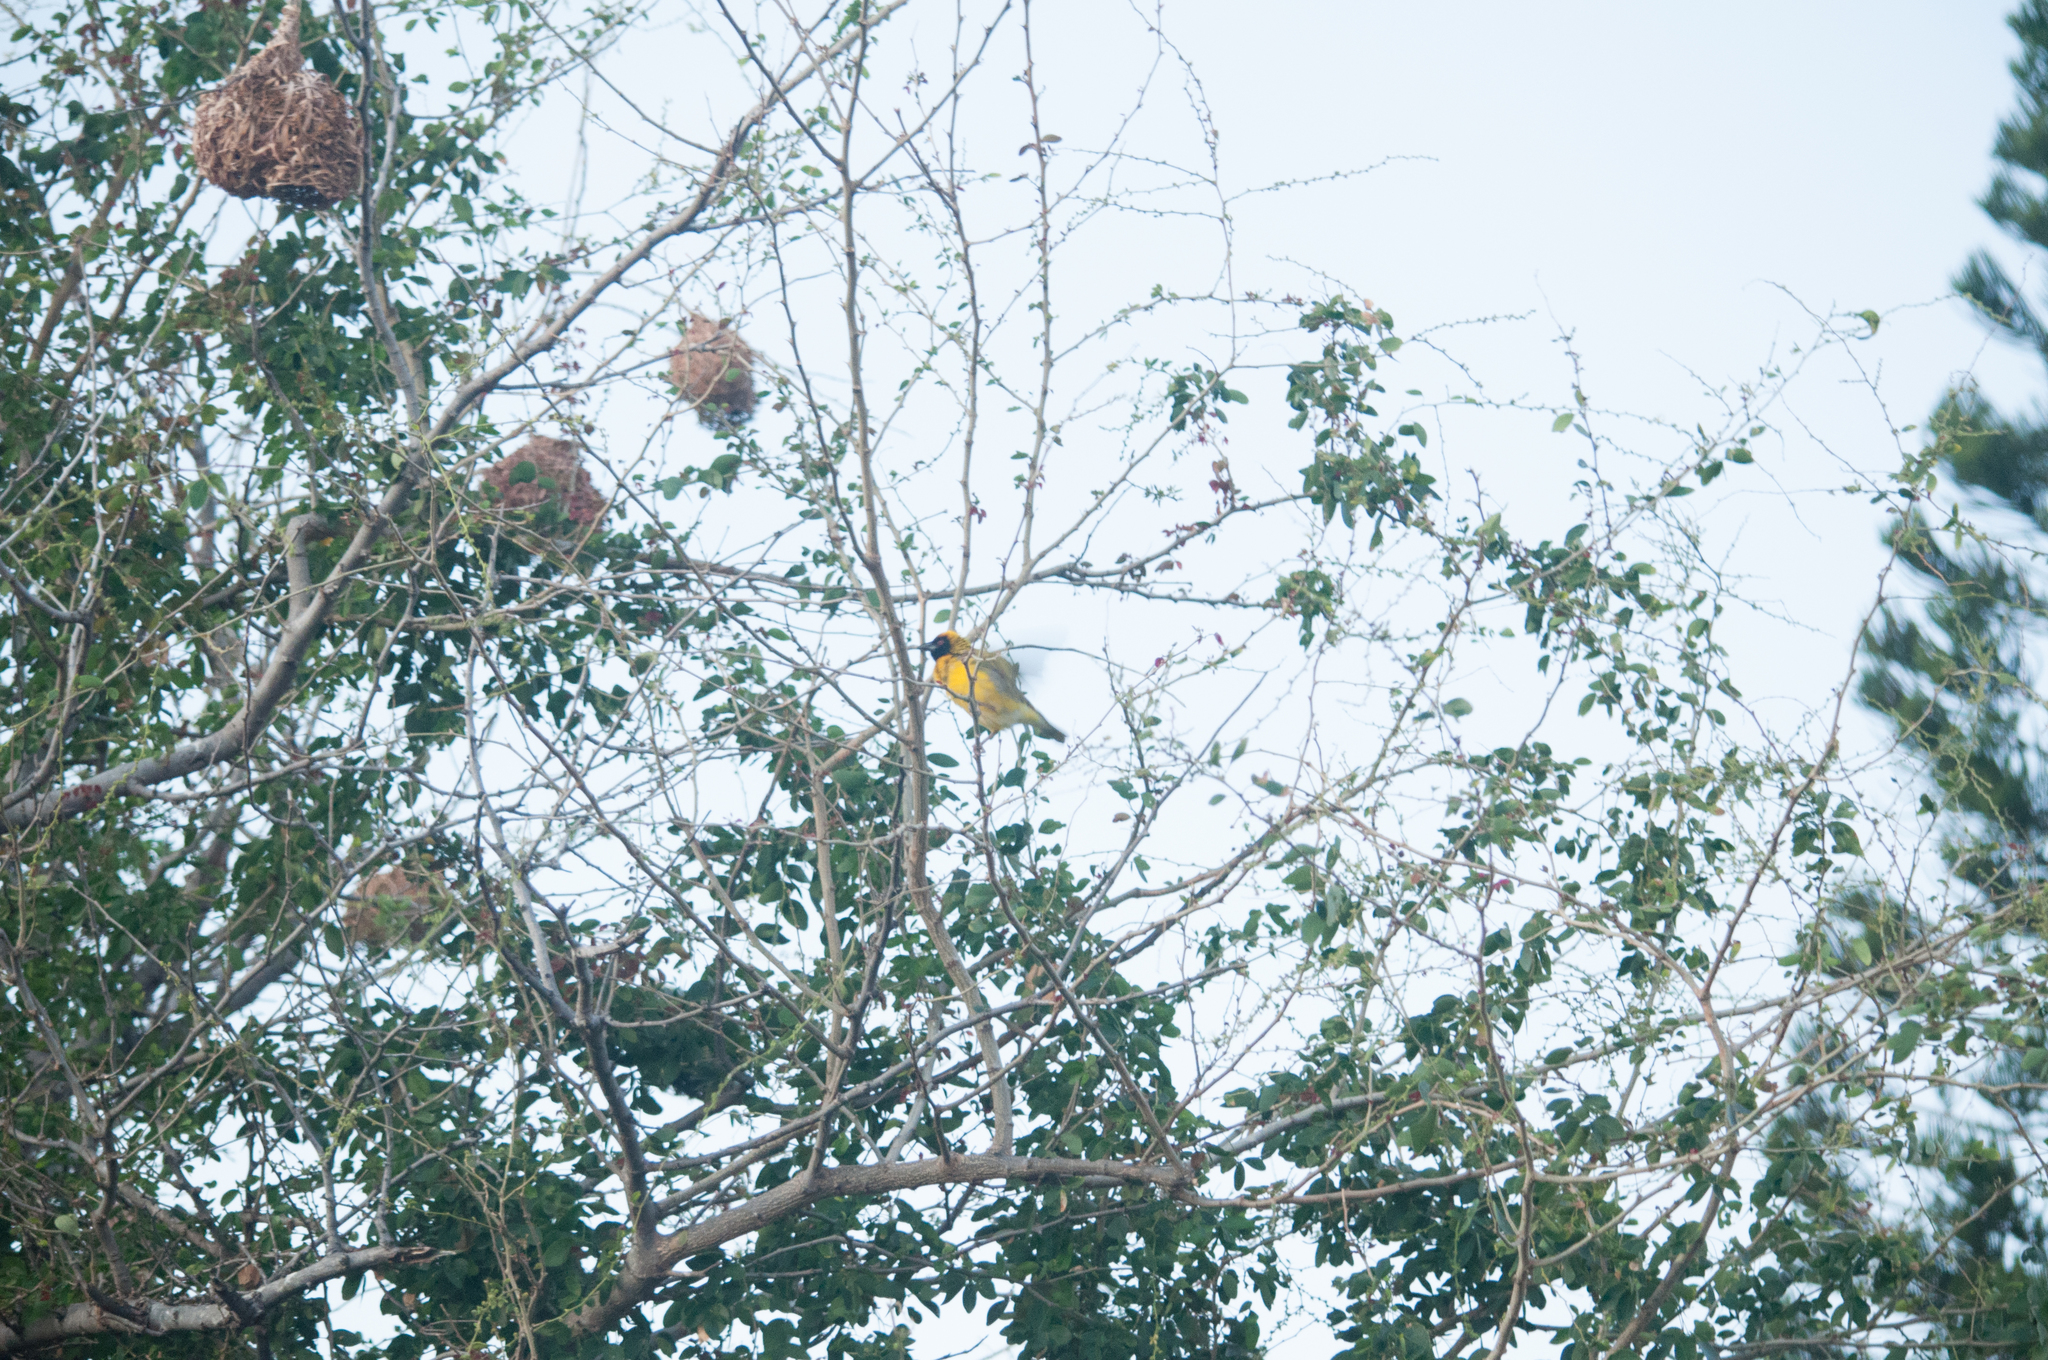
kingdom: Animalia
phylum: Chordata
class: Aves
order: Passeriformes
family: Ploceidae
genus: Ploceus
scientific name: Ploceus cucullatus
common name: Village weaver
